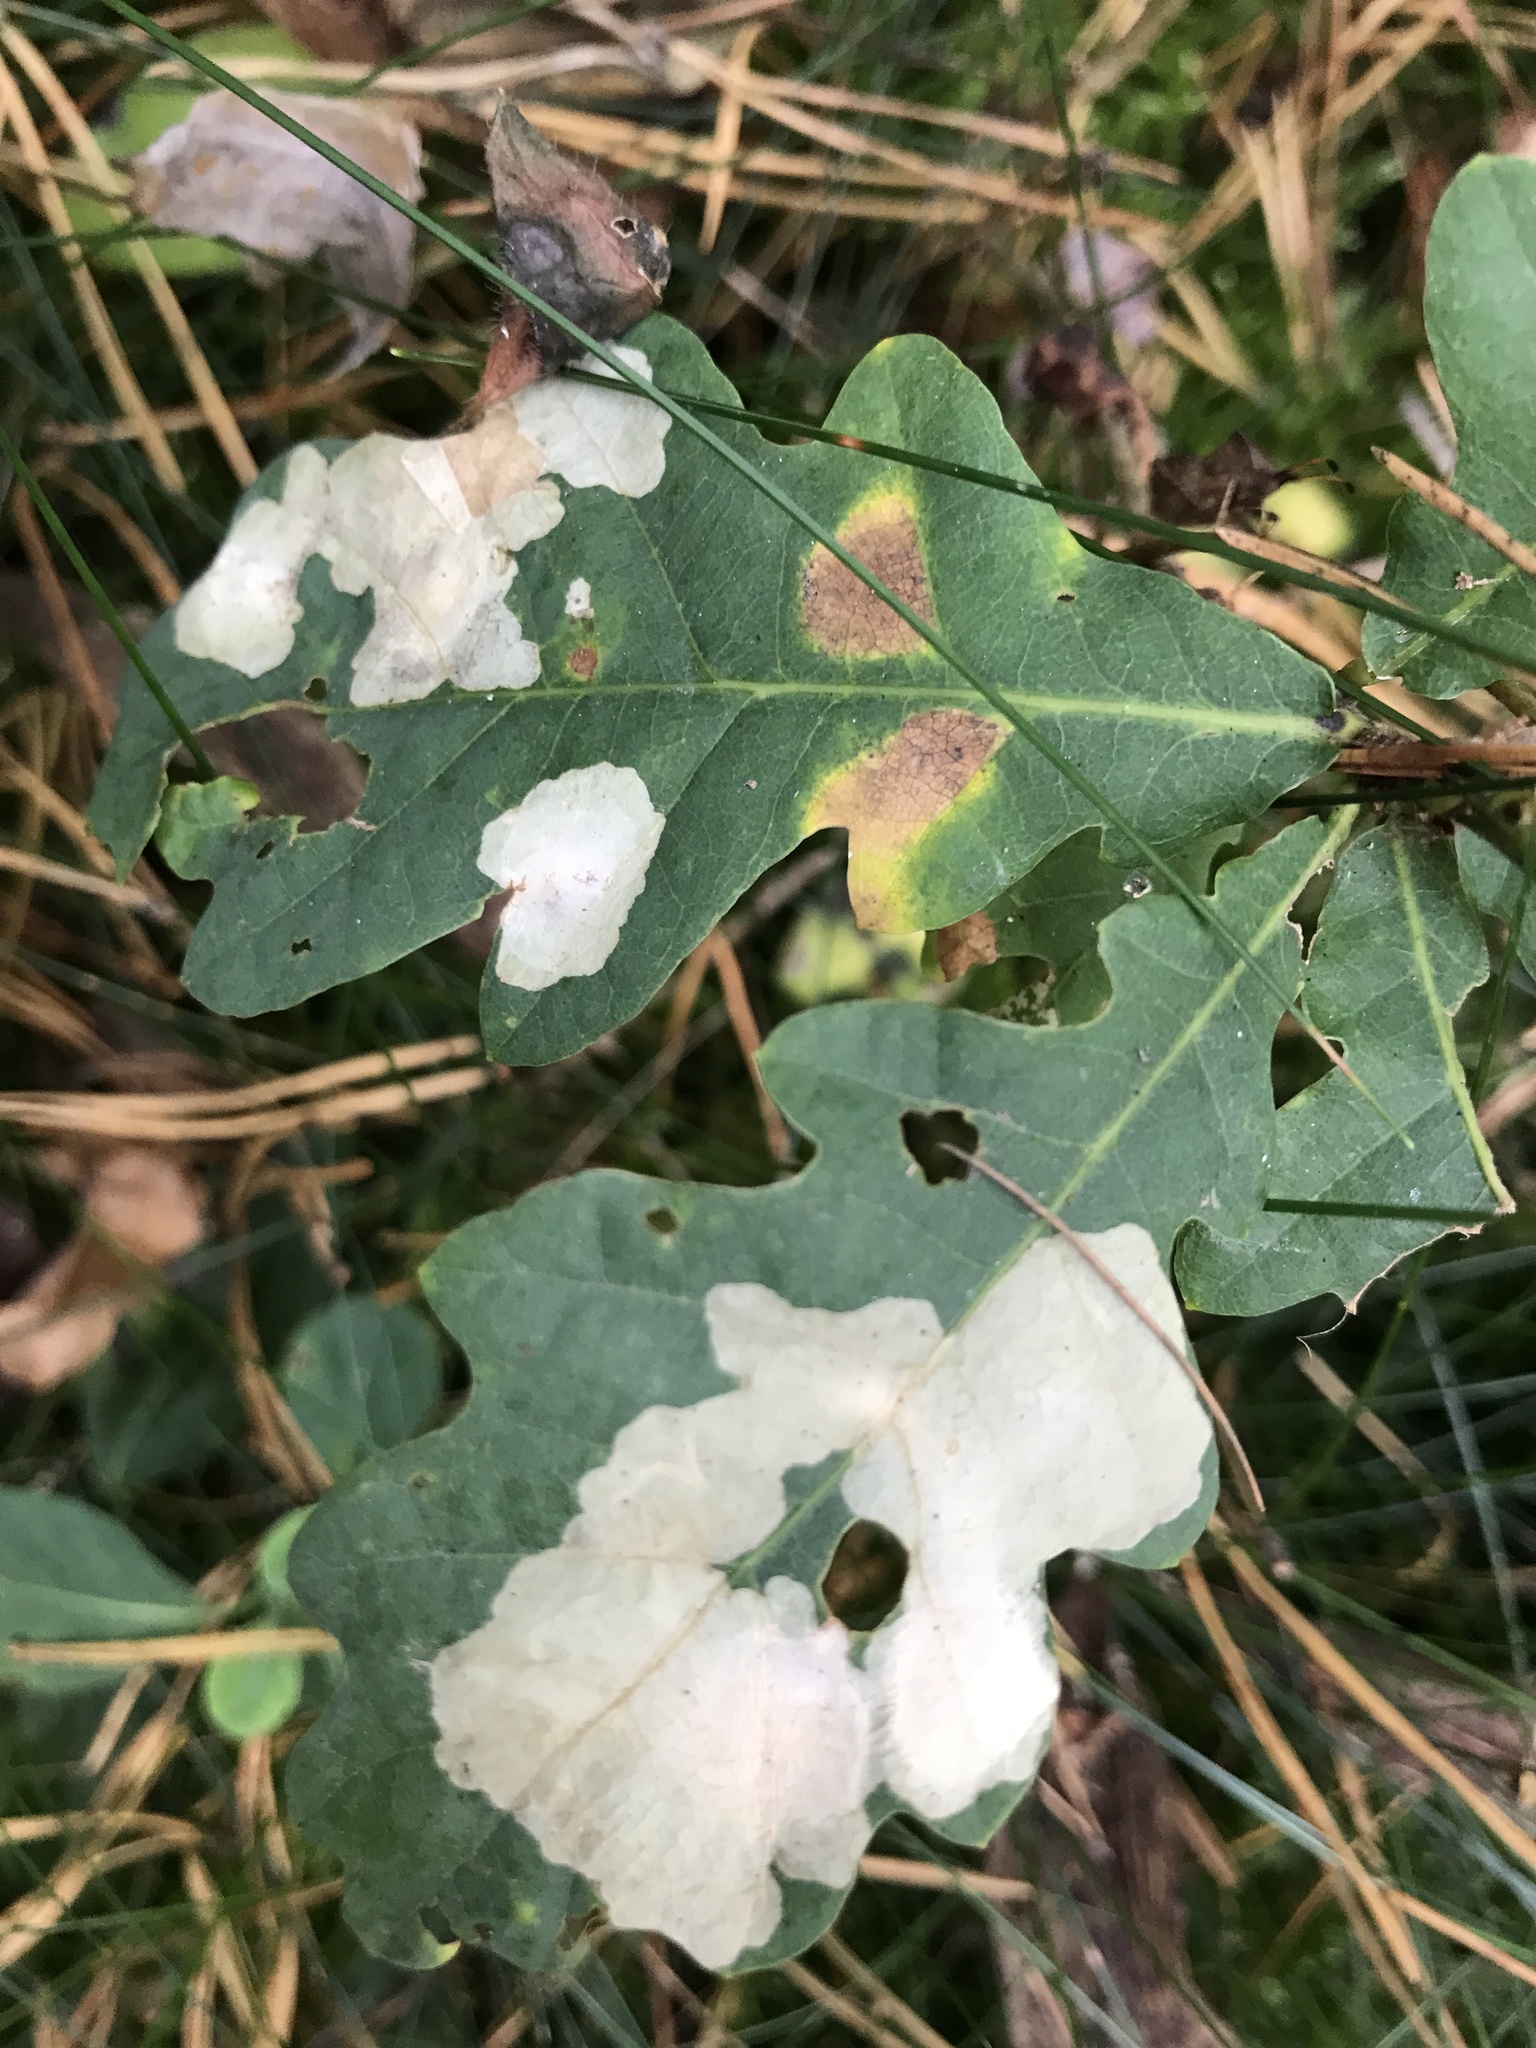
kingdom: Animalia
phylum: Arthropoda
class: Insecta
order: Lepidoptera
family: Tischeriidae
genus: Tischeria
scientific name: Tischeria ekebladella
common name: Oak carl
